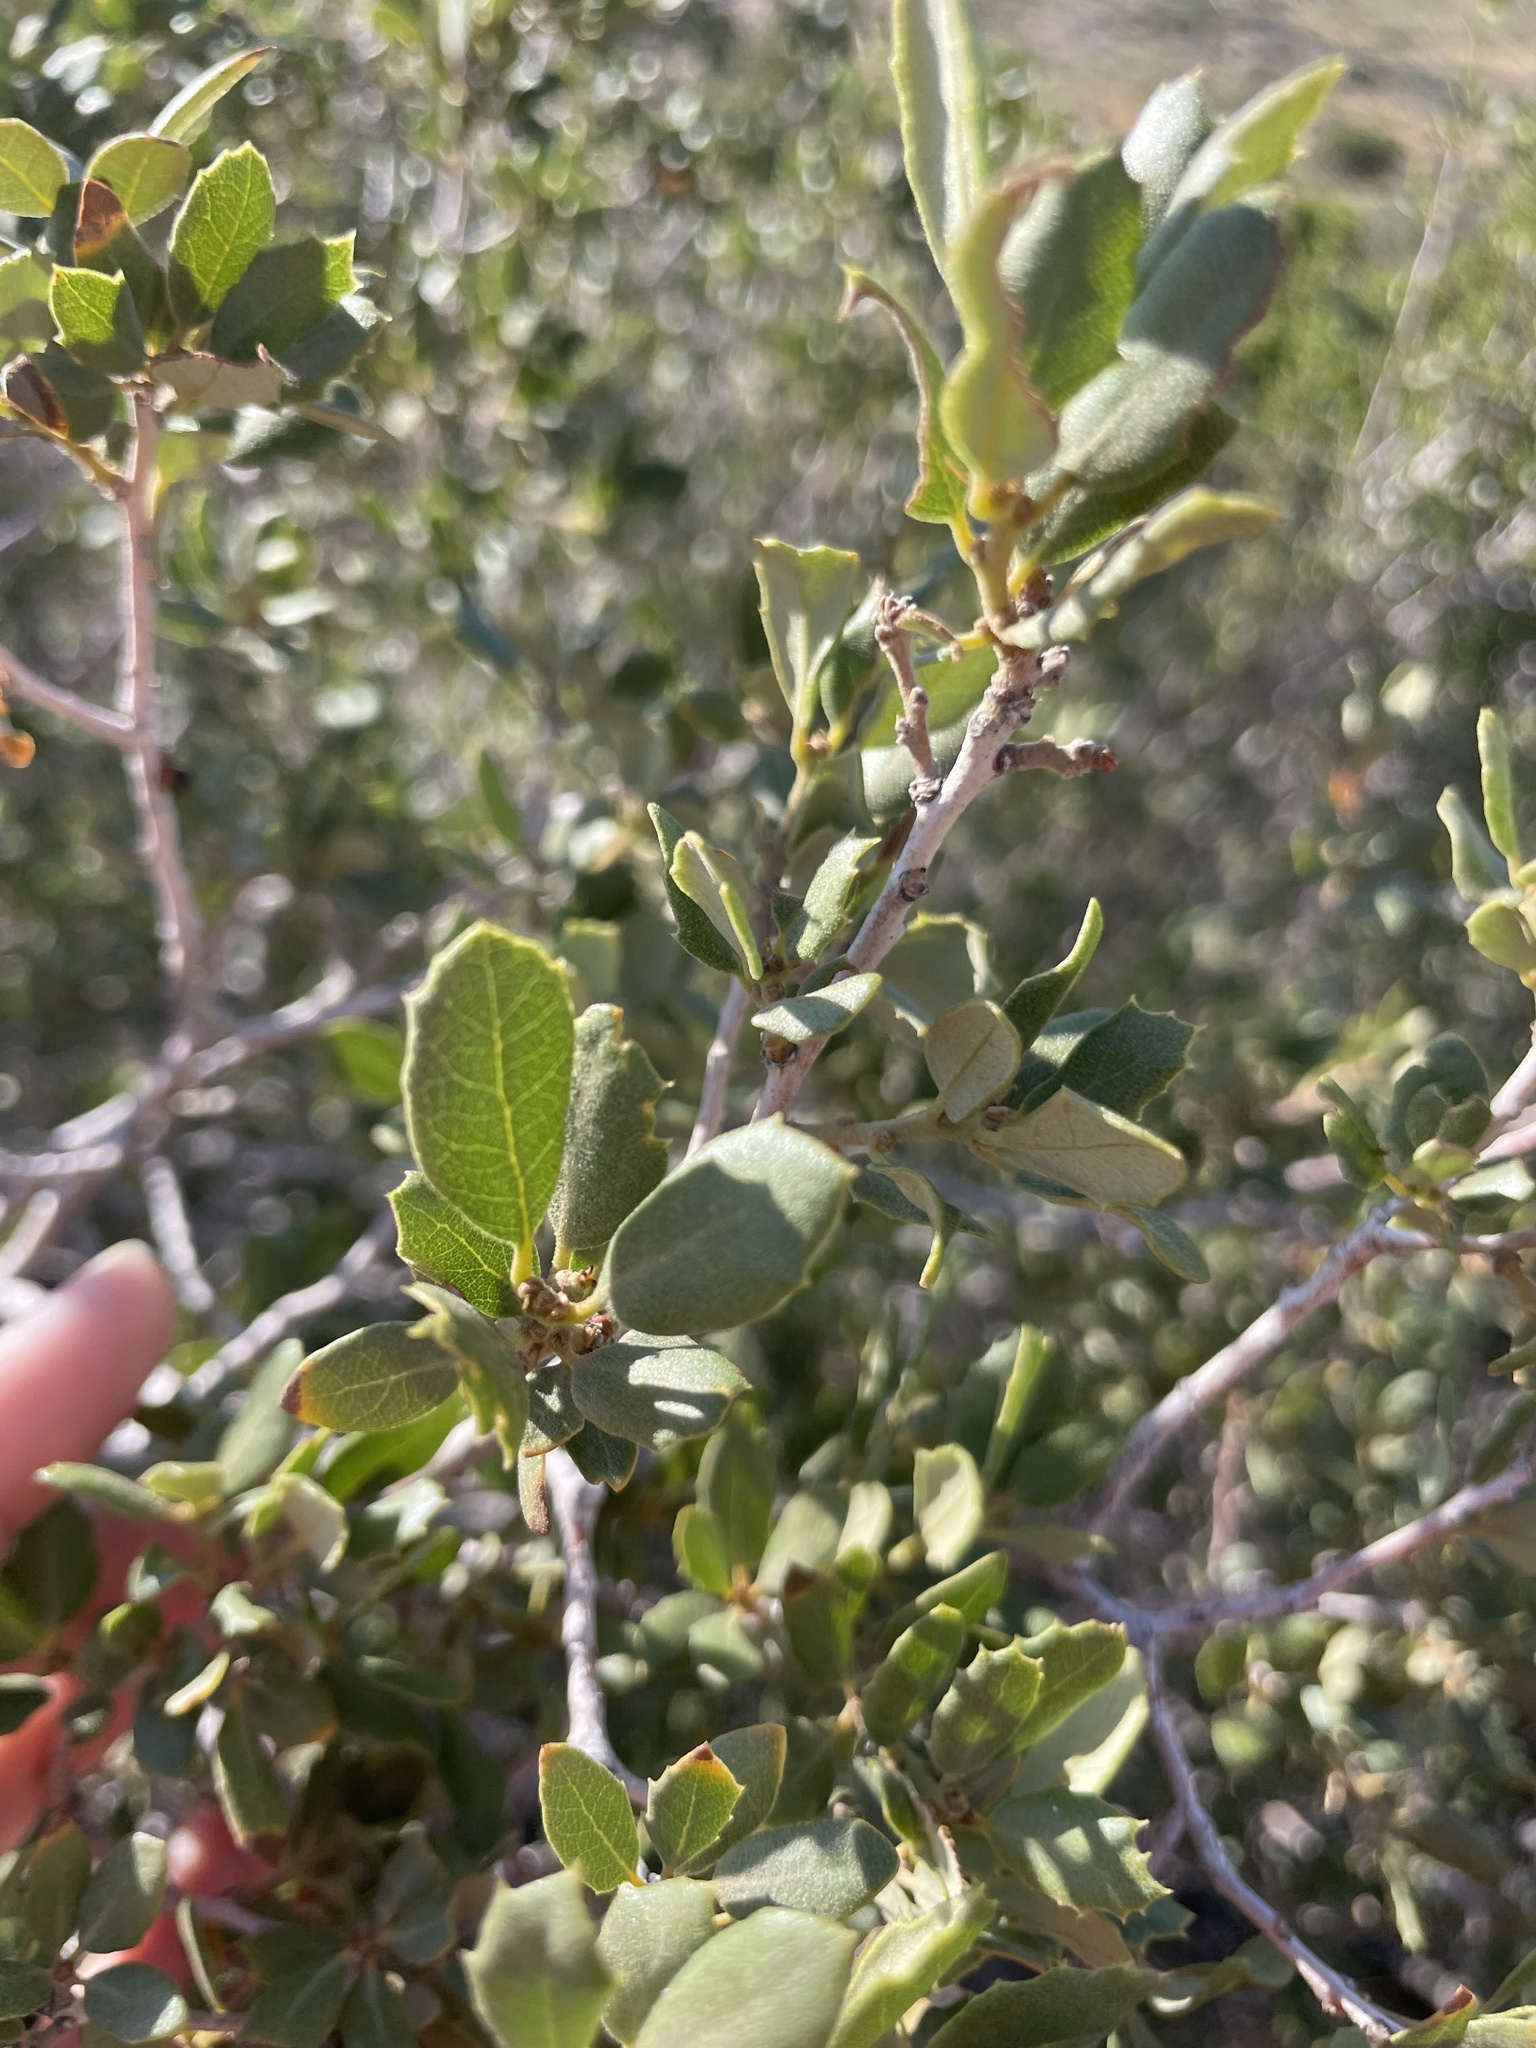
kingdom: Plantae
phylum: Tracheophyta
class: Magnoliopsida
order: Fagales
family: Fagaceae
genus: Quercus
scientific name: Quercus cornelius-mulleri
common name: Muller oak
